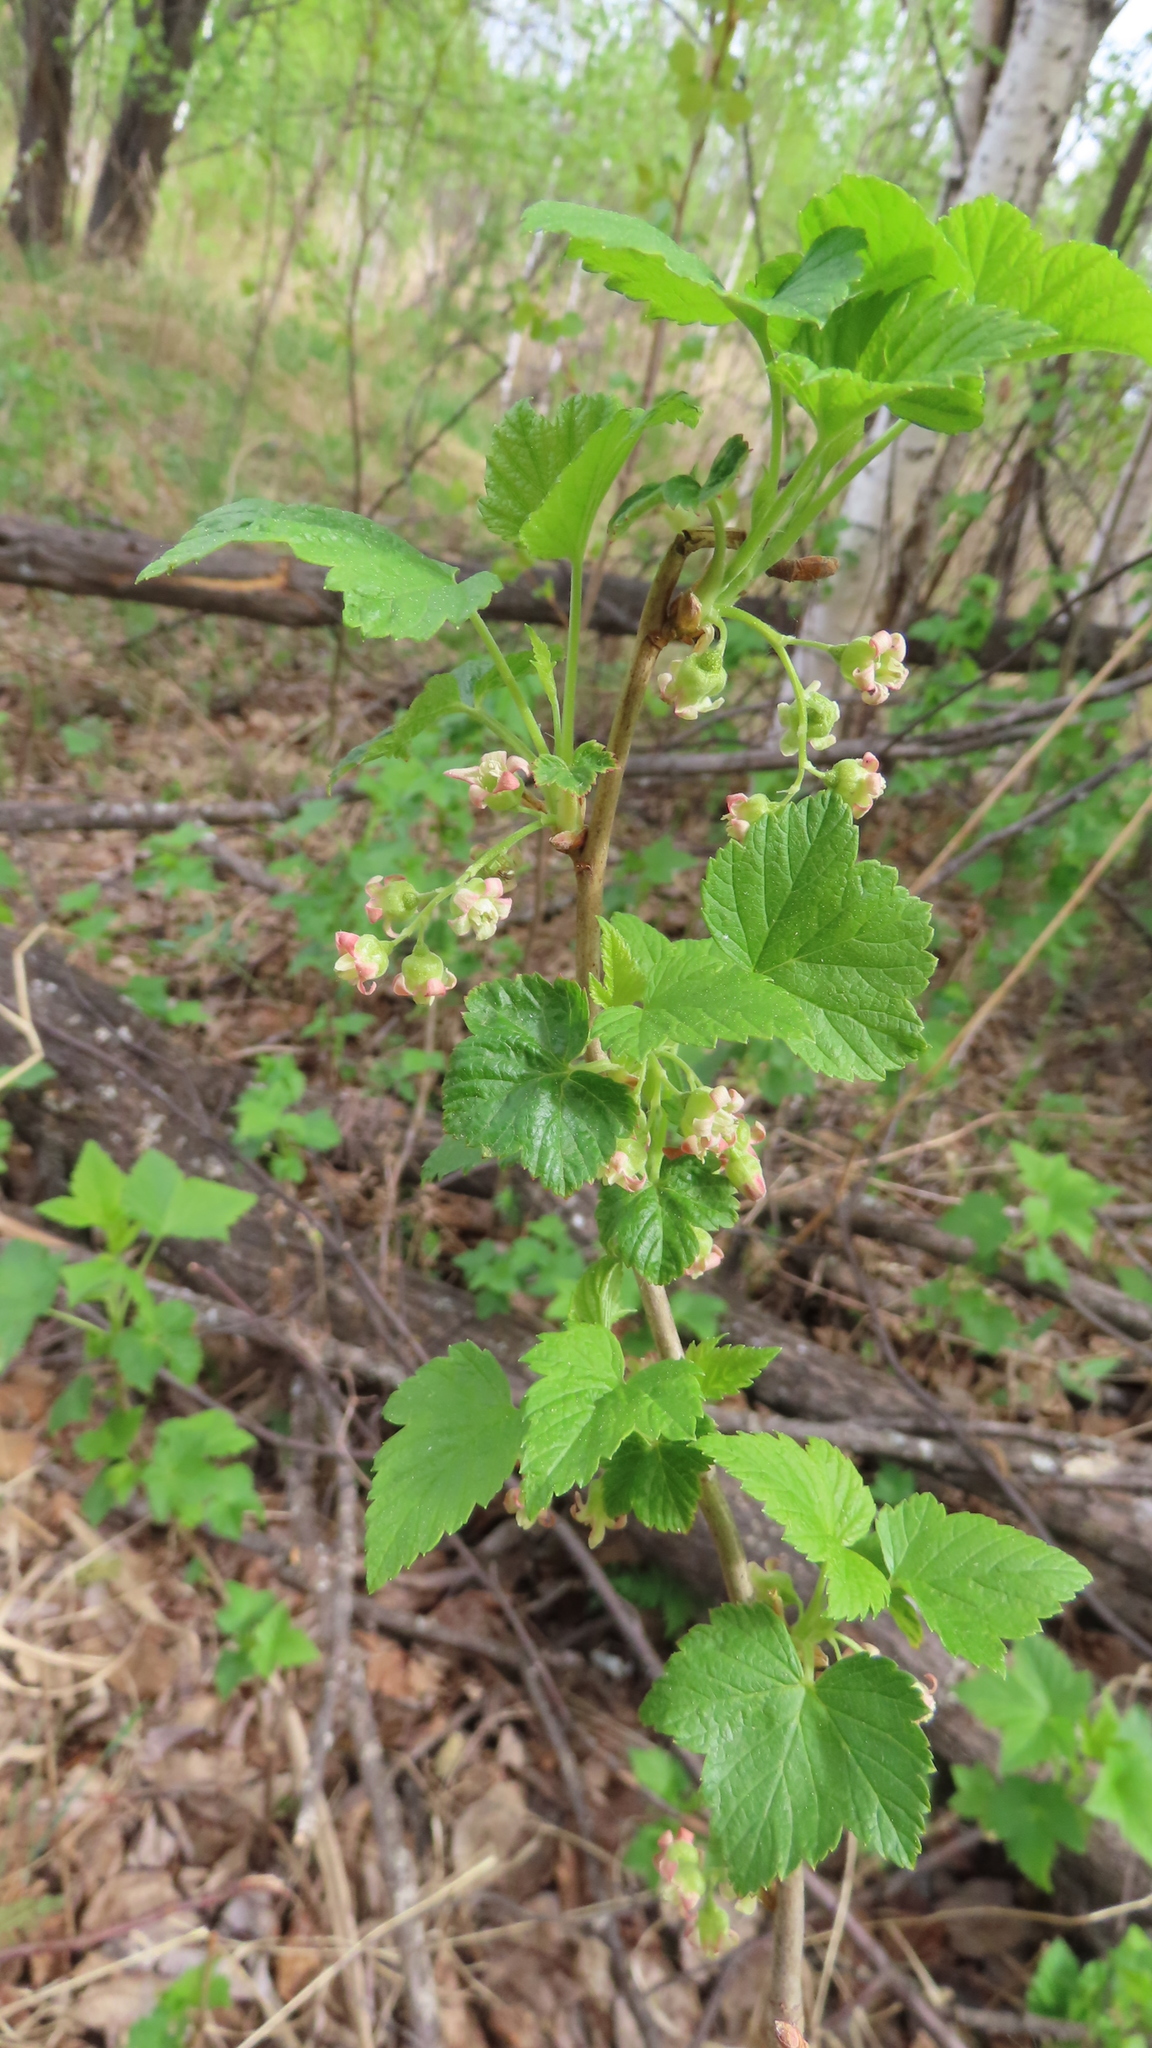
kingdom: Plantae
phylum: Tracheophyta
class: Magnoliopsida
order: Saxifragales
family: Grossulariaceae
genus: Ribes
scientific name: Ribes nigrum
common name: Black currant
